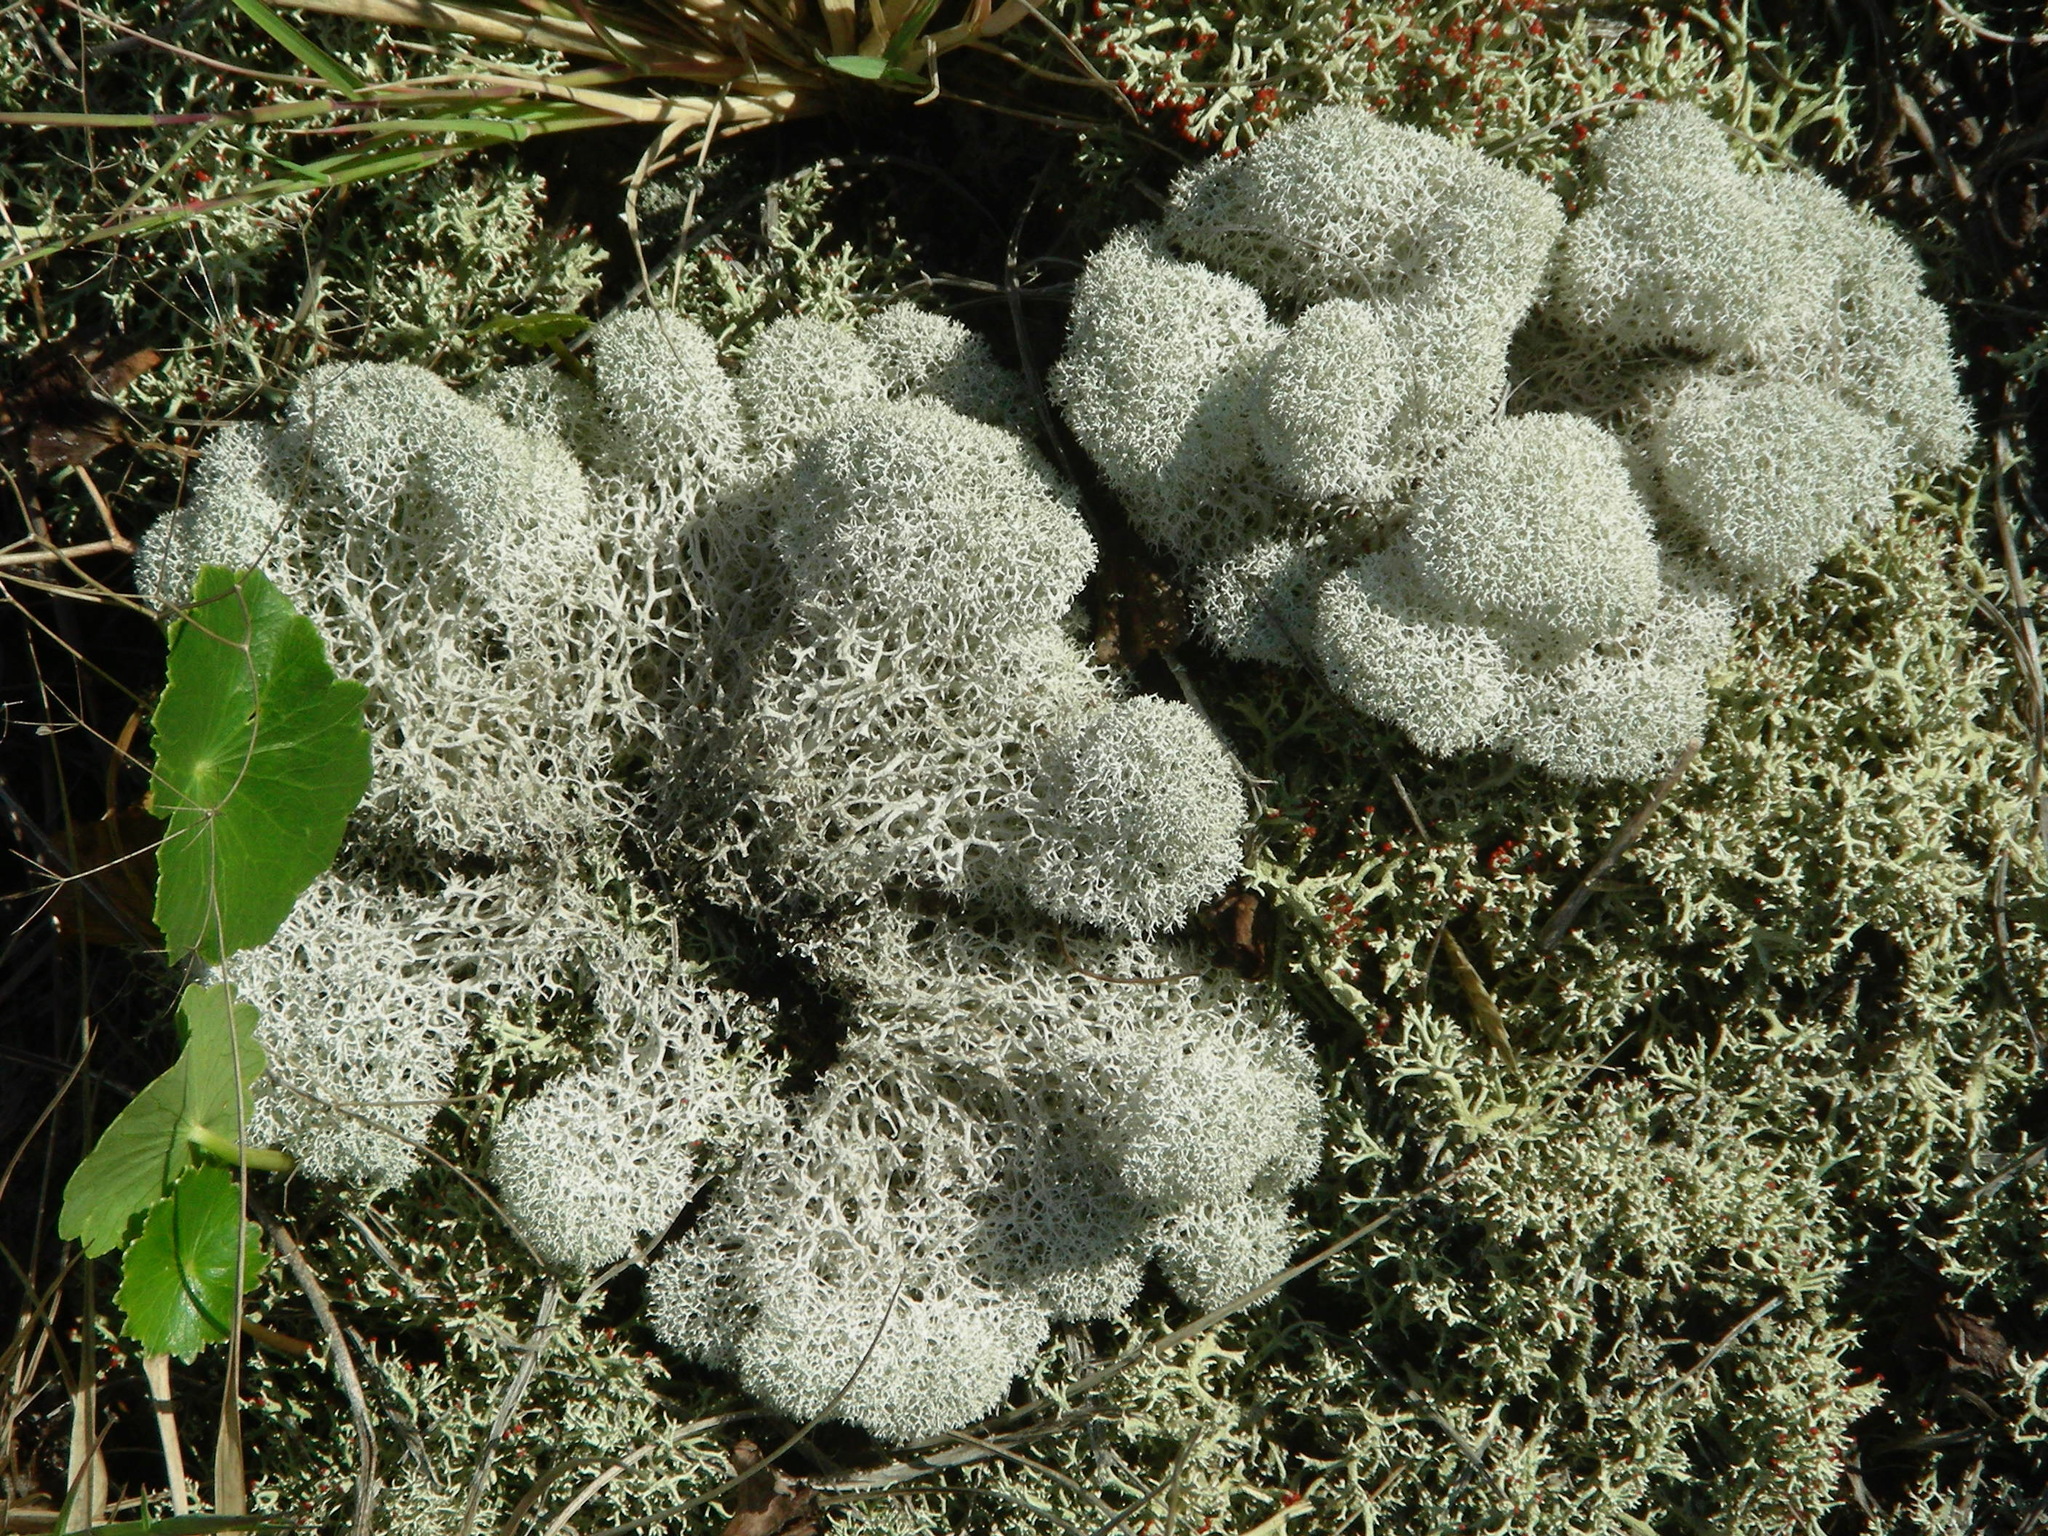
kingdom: Fungi
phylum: Ascomycota
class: Lecanoromycetes
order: Lecanorales
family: Cladoniaceae
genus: Cladonia
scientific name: Cladonia evansii
